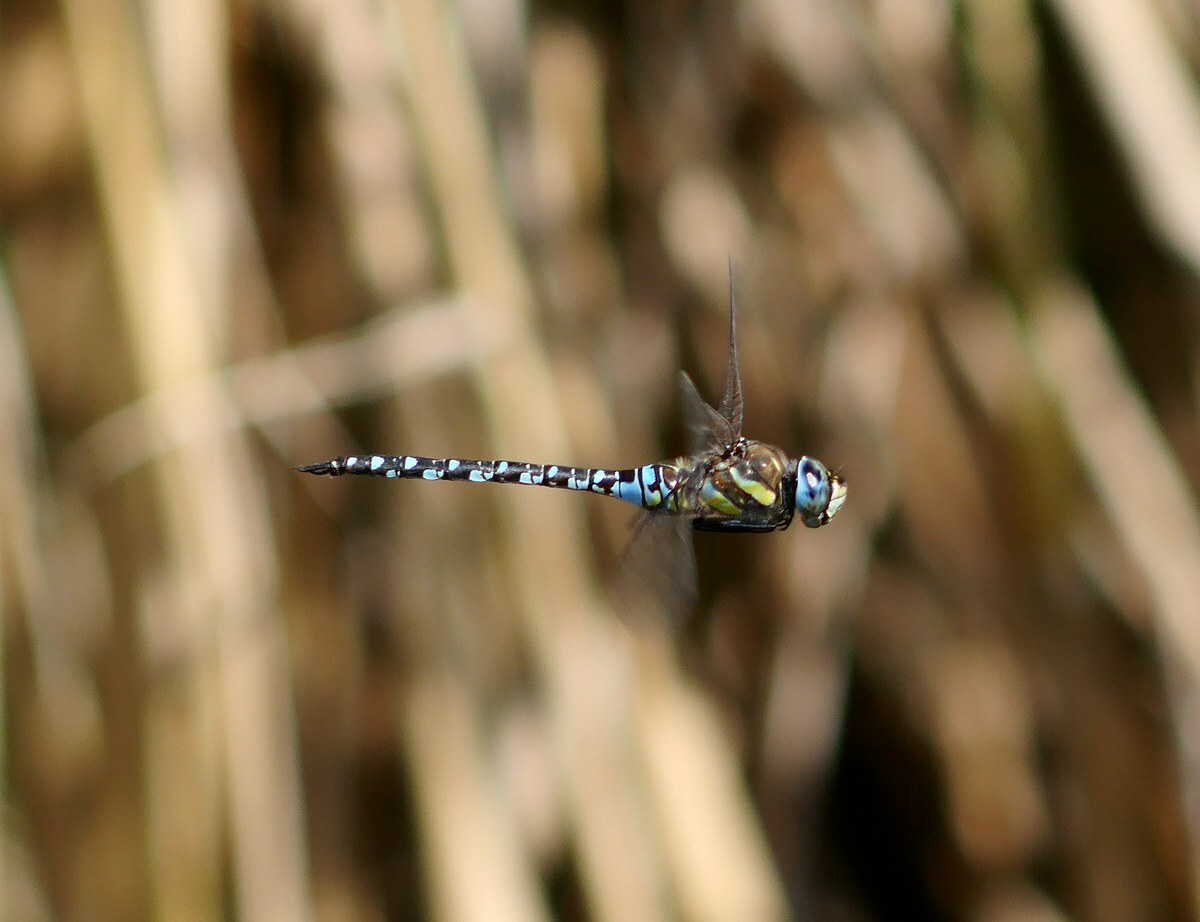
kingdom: Animalia
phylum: Arthropoda
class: Insecta
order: Odonata
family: Aeshnidae
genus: Aeshna
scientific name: Aeshna mixta
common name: Migrant hawker
